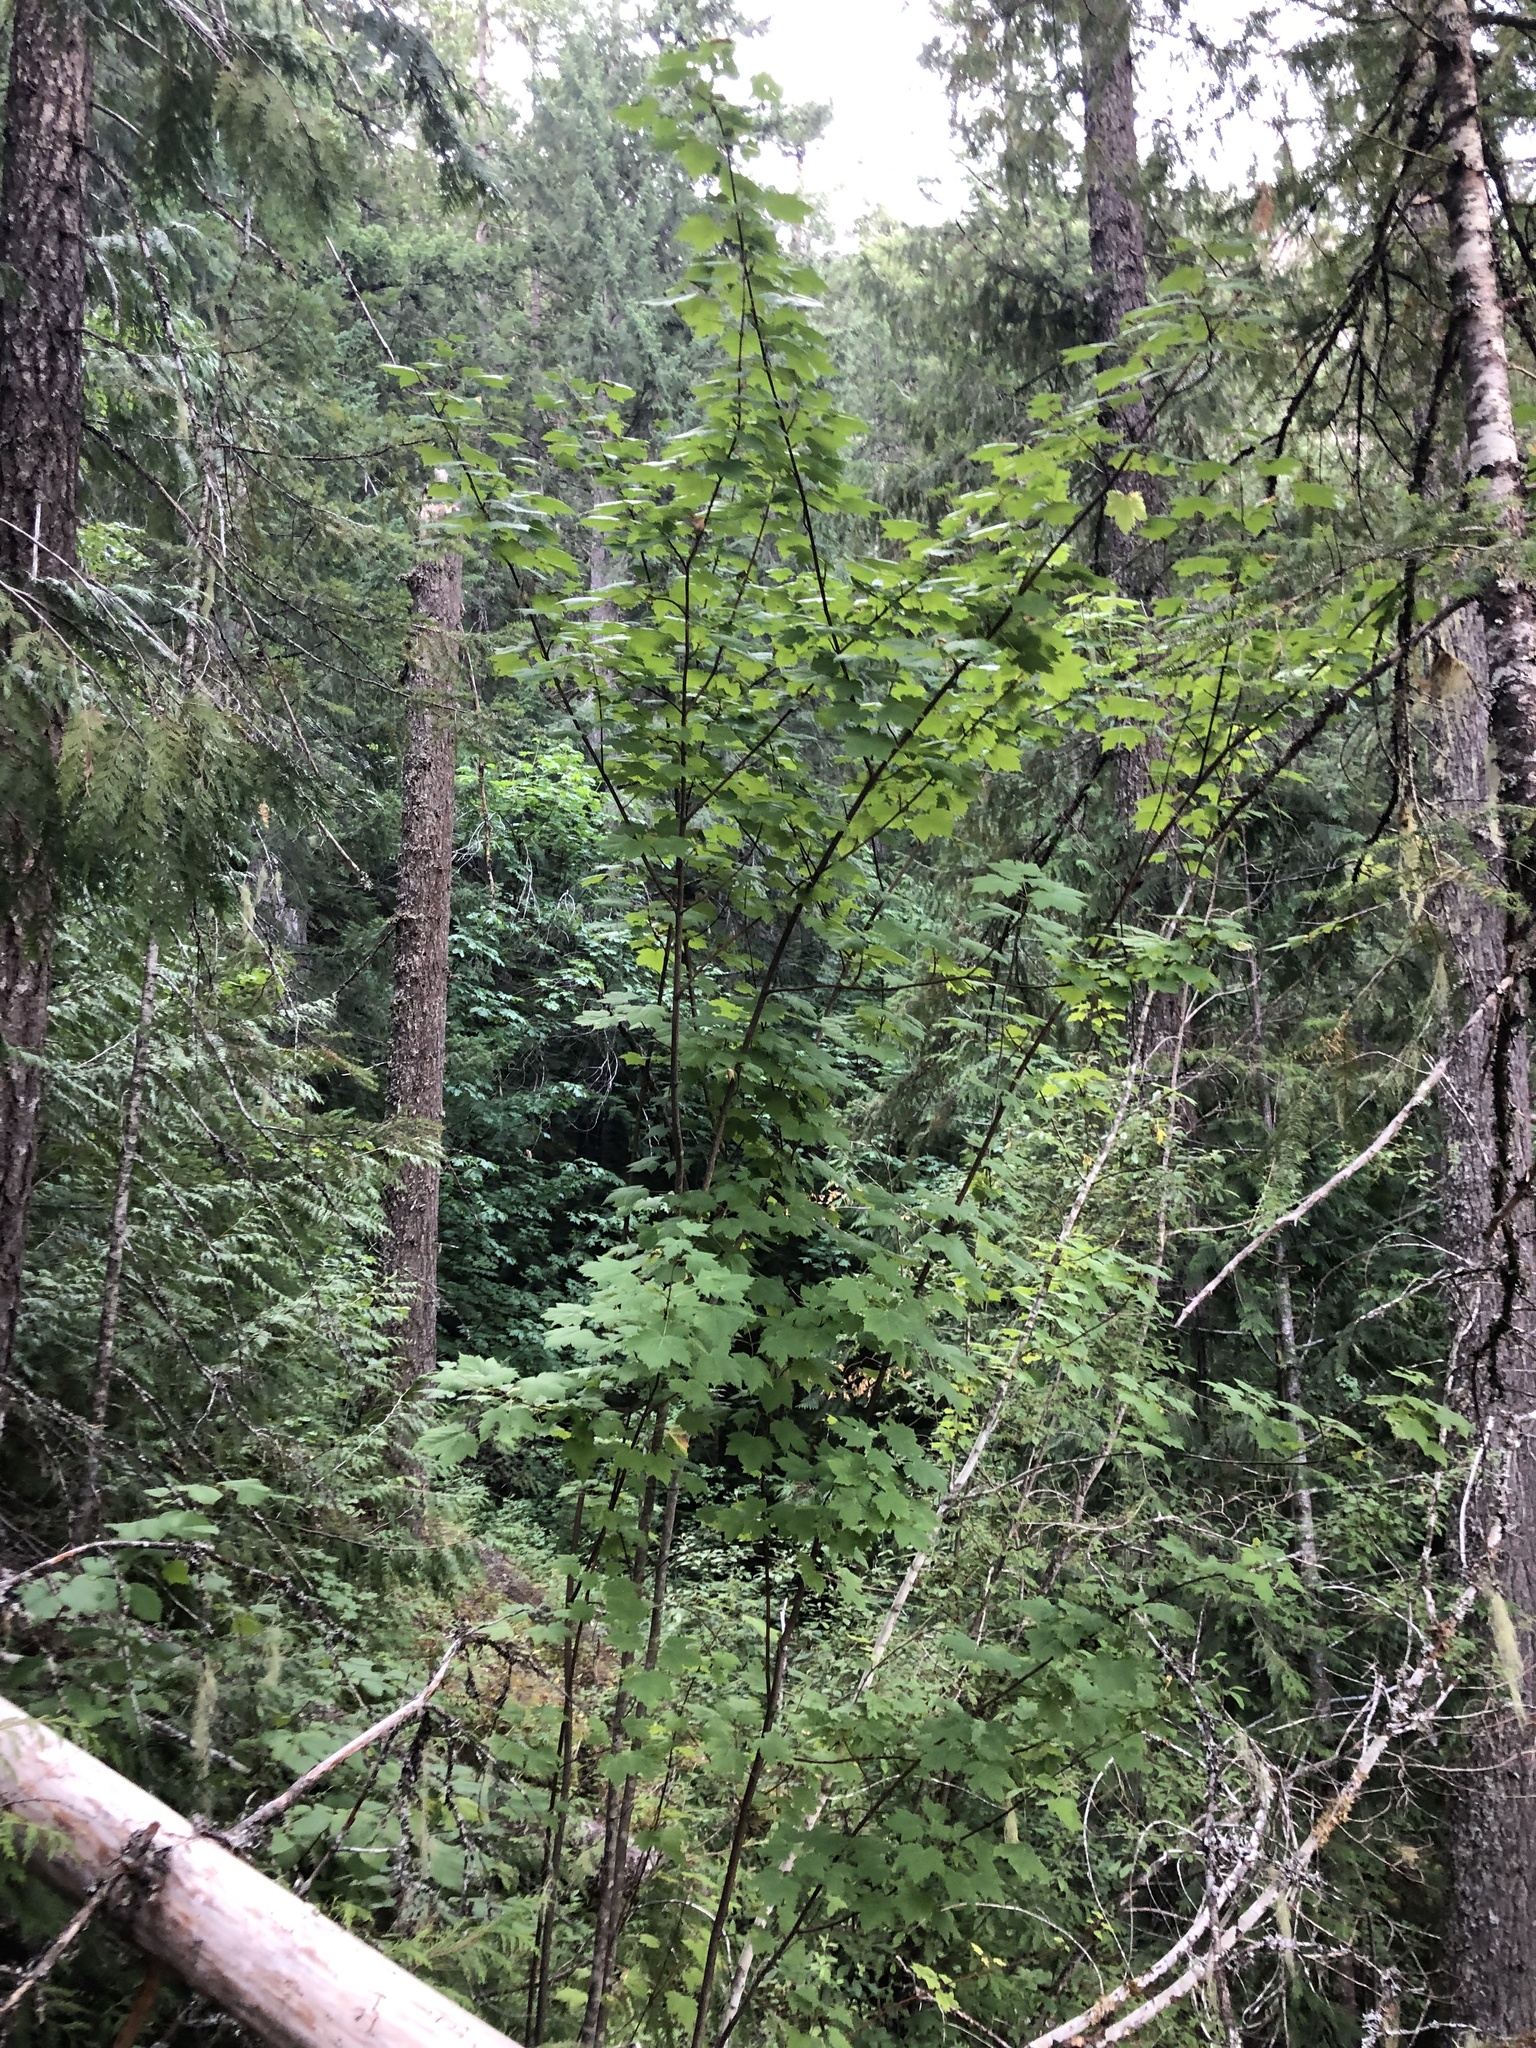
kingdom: Plantae
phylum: Tracheophyta
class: Magnoliopsida
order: Sapindales
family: Sapindaceae
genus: Acer
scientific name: Acer glabrum
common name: Rocky mountain maple
